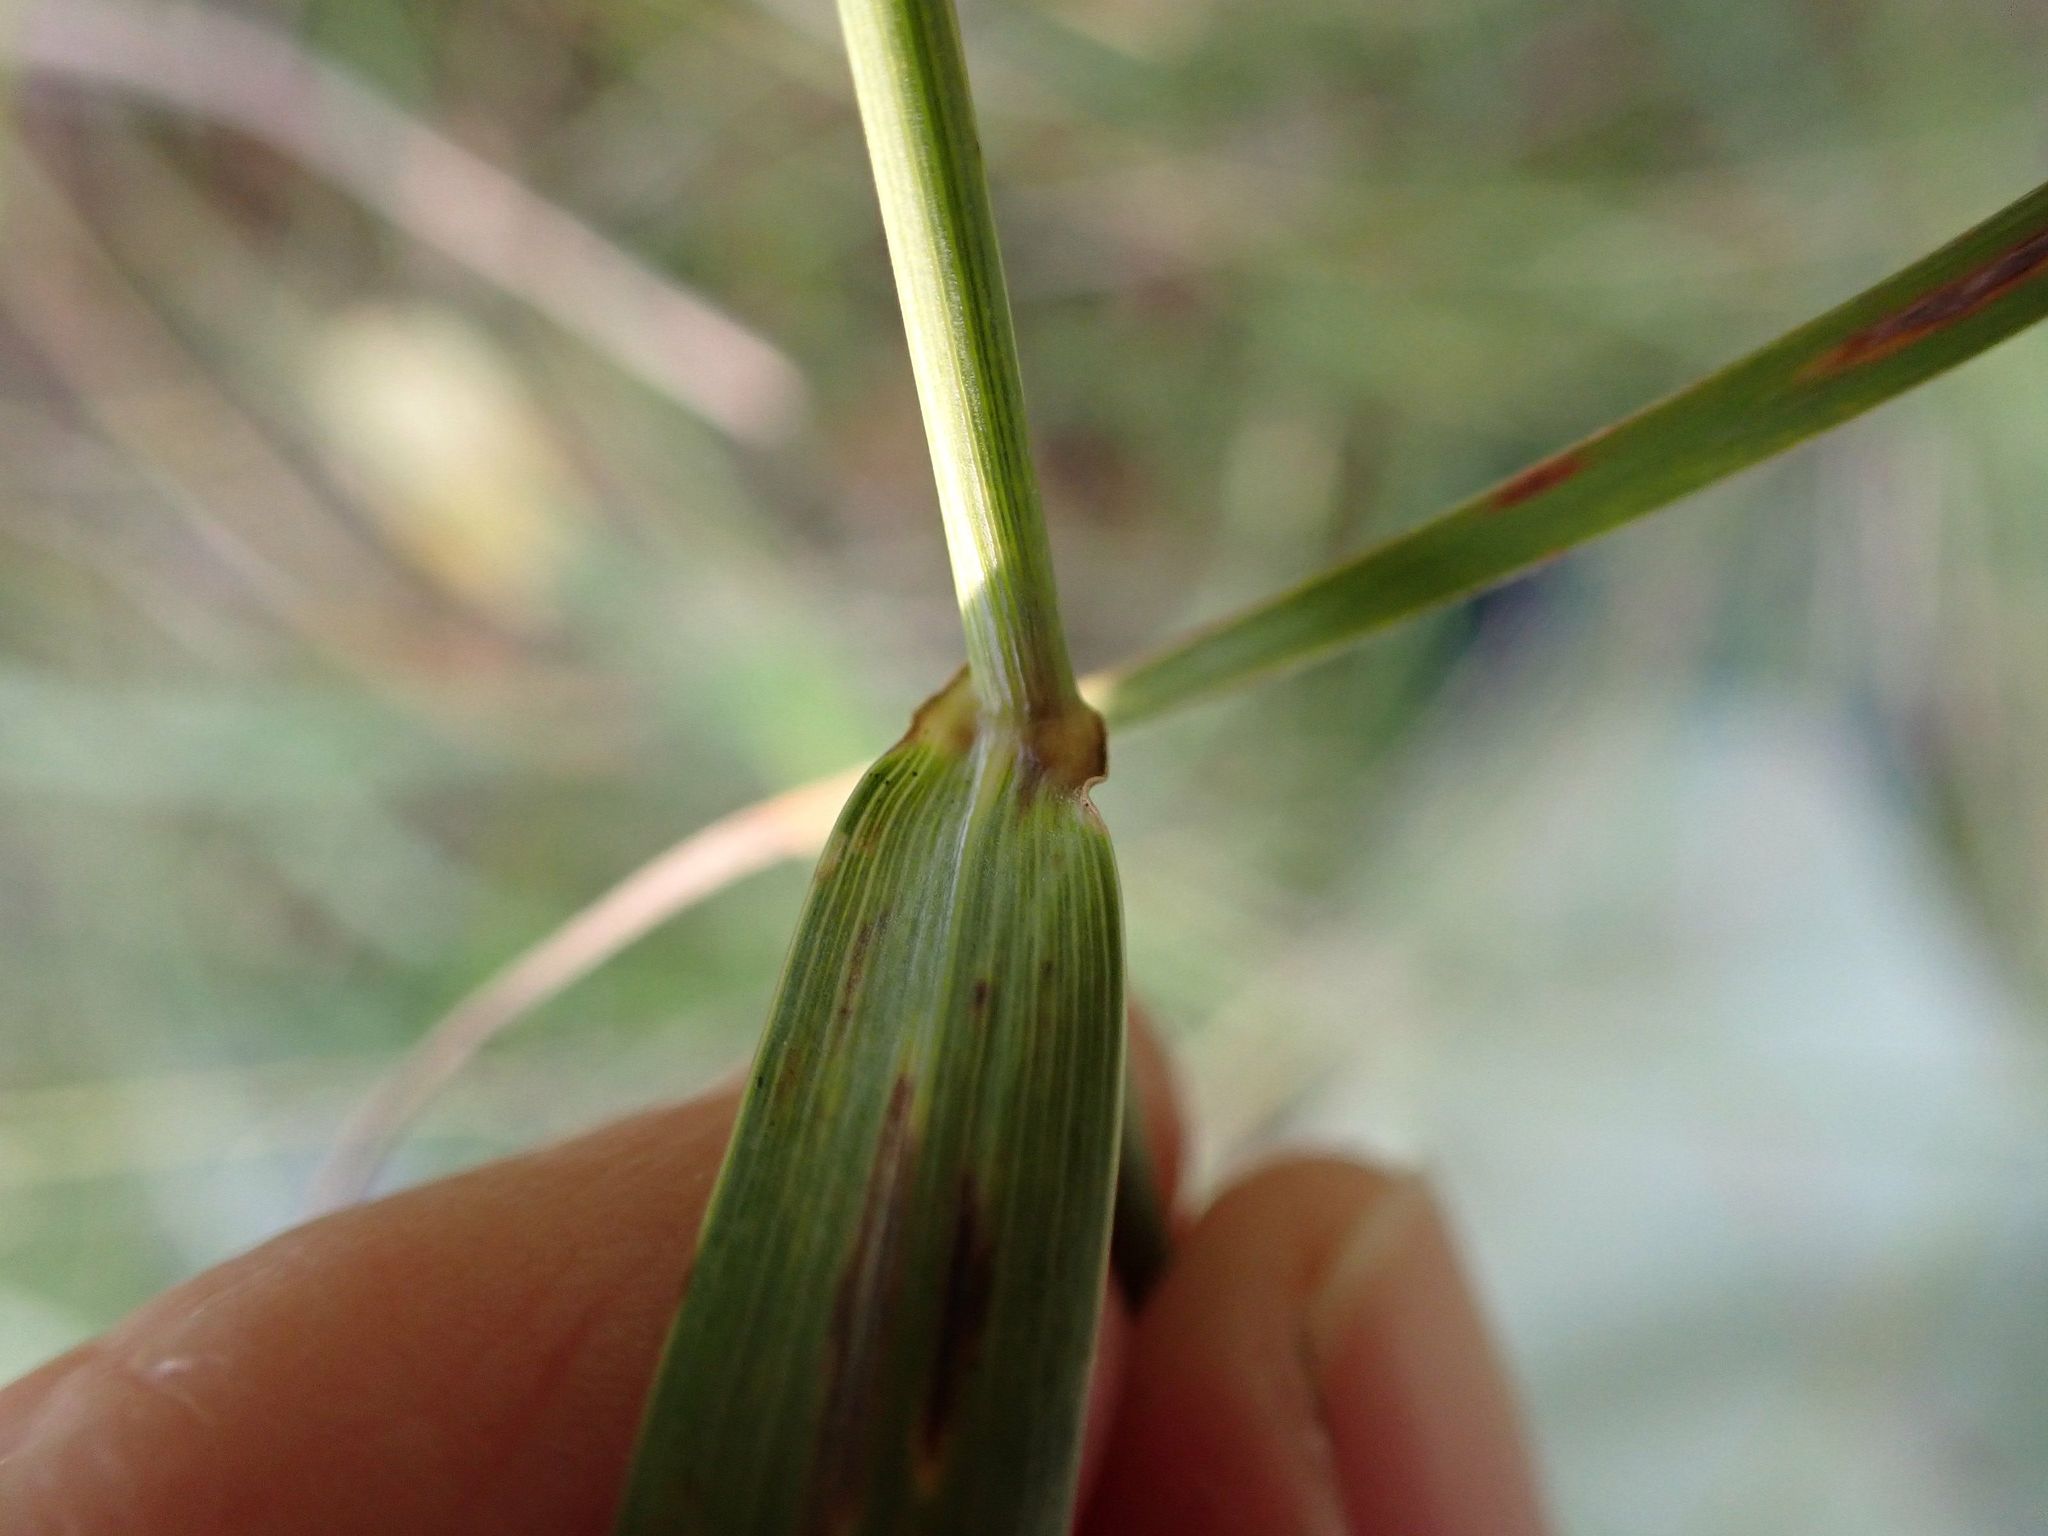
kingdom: Plantae
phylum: Tracheophyta
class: Liliopsida
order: Poales
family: Poaceae
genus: Elymus
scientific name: Elymus canadensis
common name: Canada wild rye
